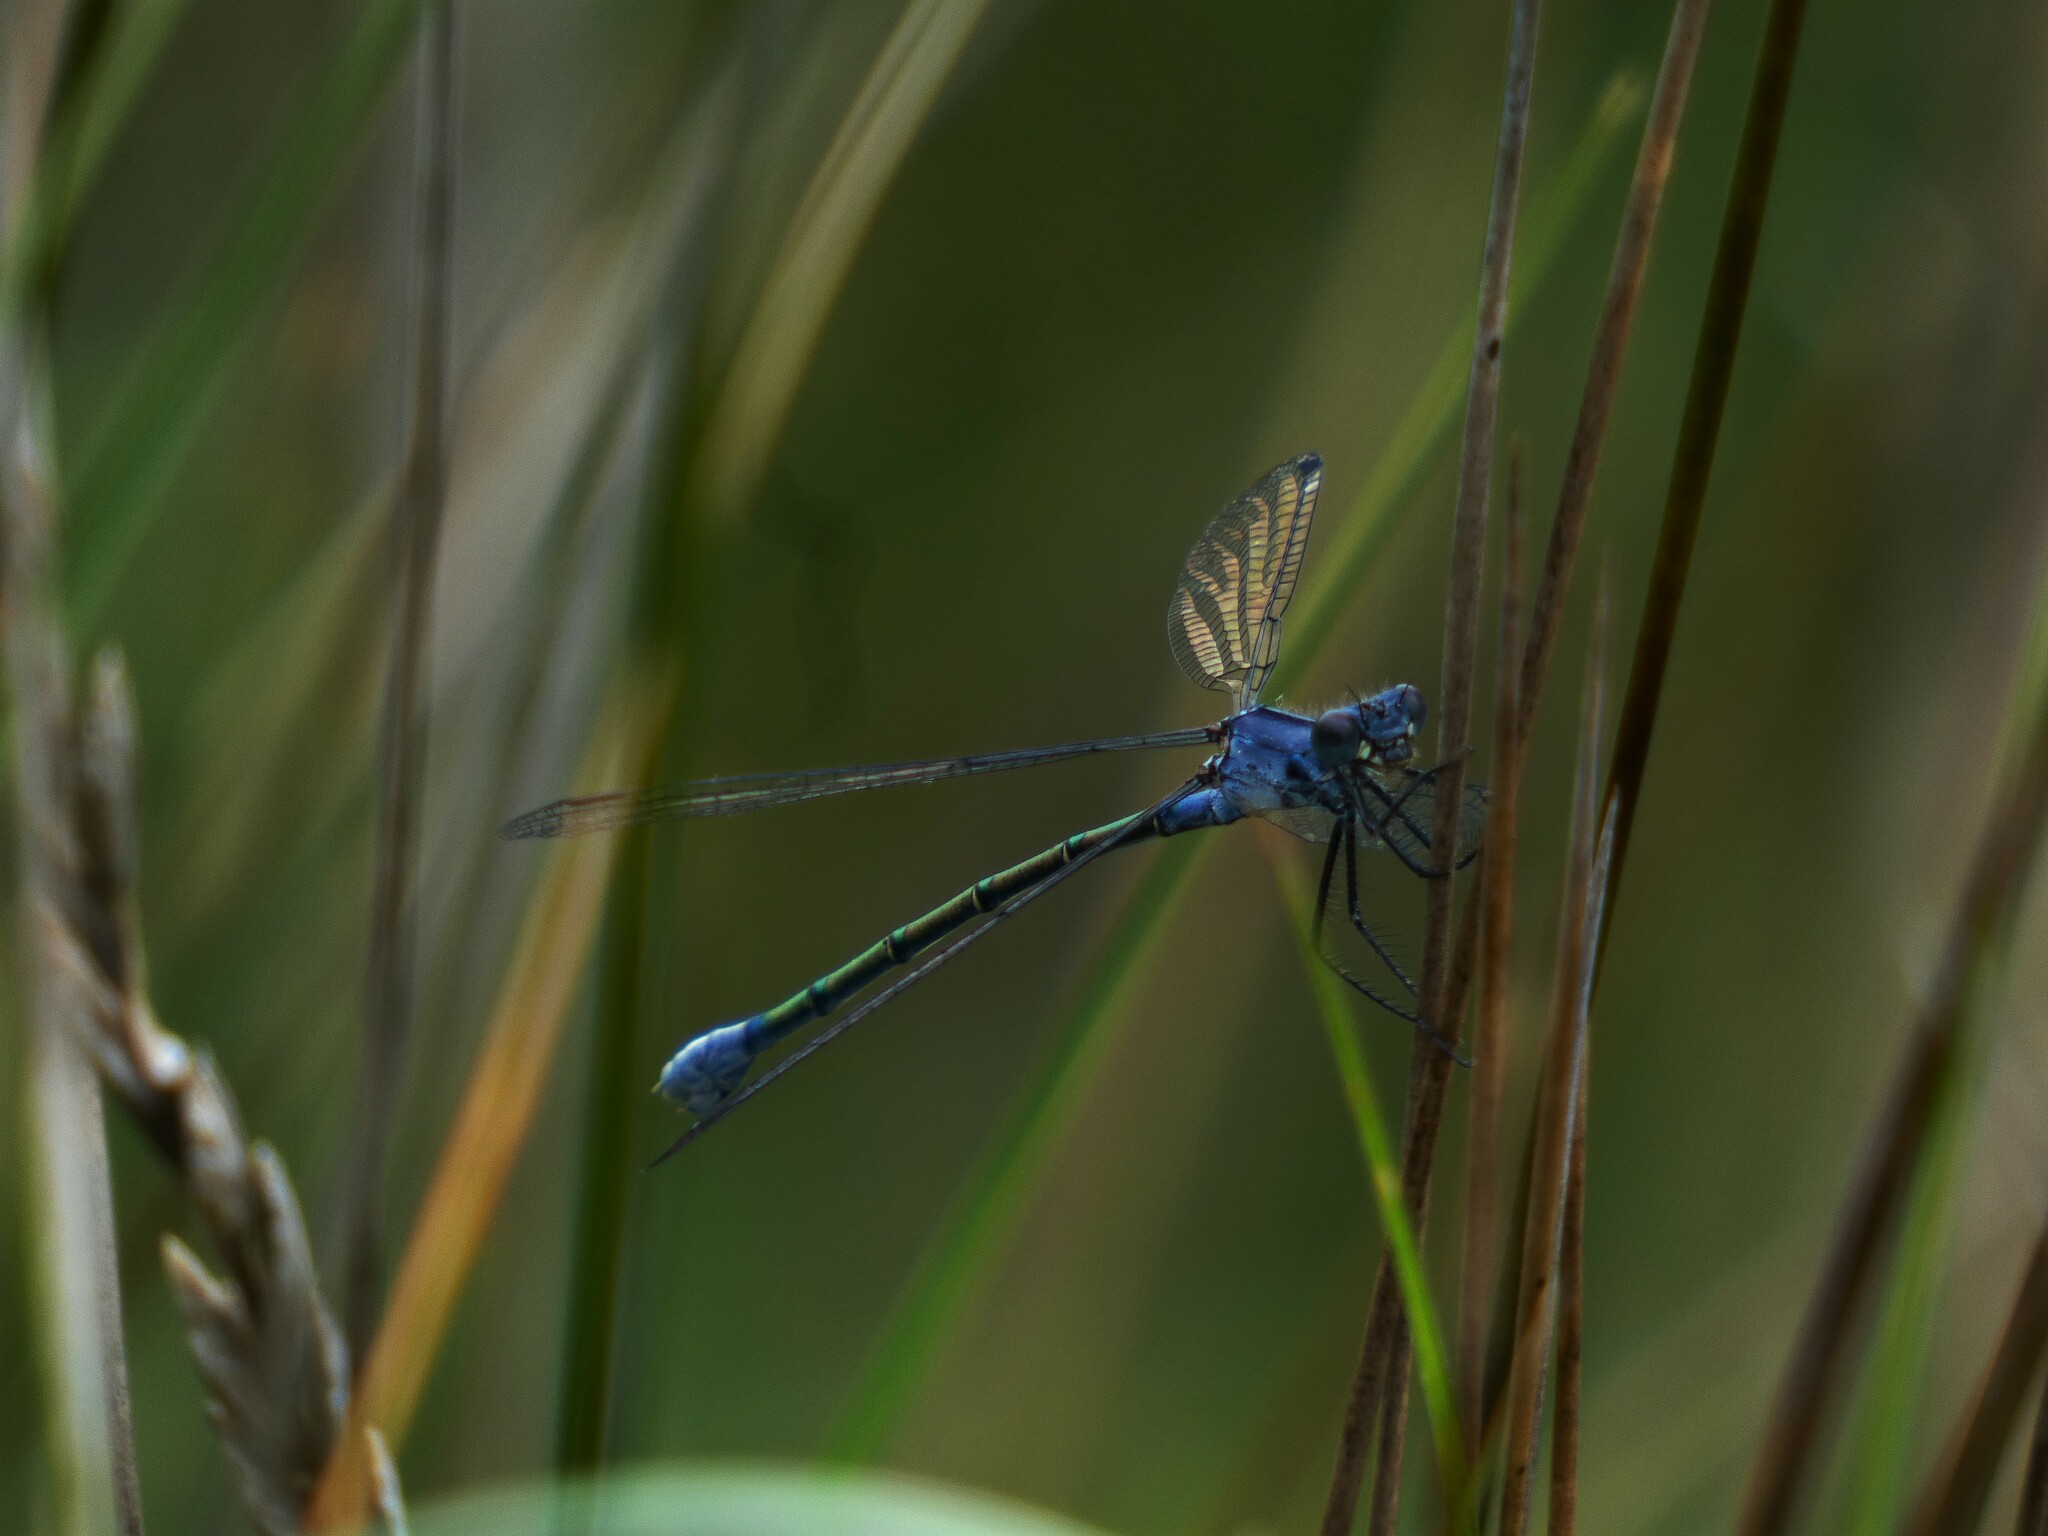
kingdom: Animalia
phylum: Arthropoda
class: Insecta
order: Odonata
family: Lestidae
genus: Lestes
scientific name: Lestes macrostigma
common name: Dark spreadwing
